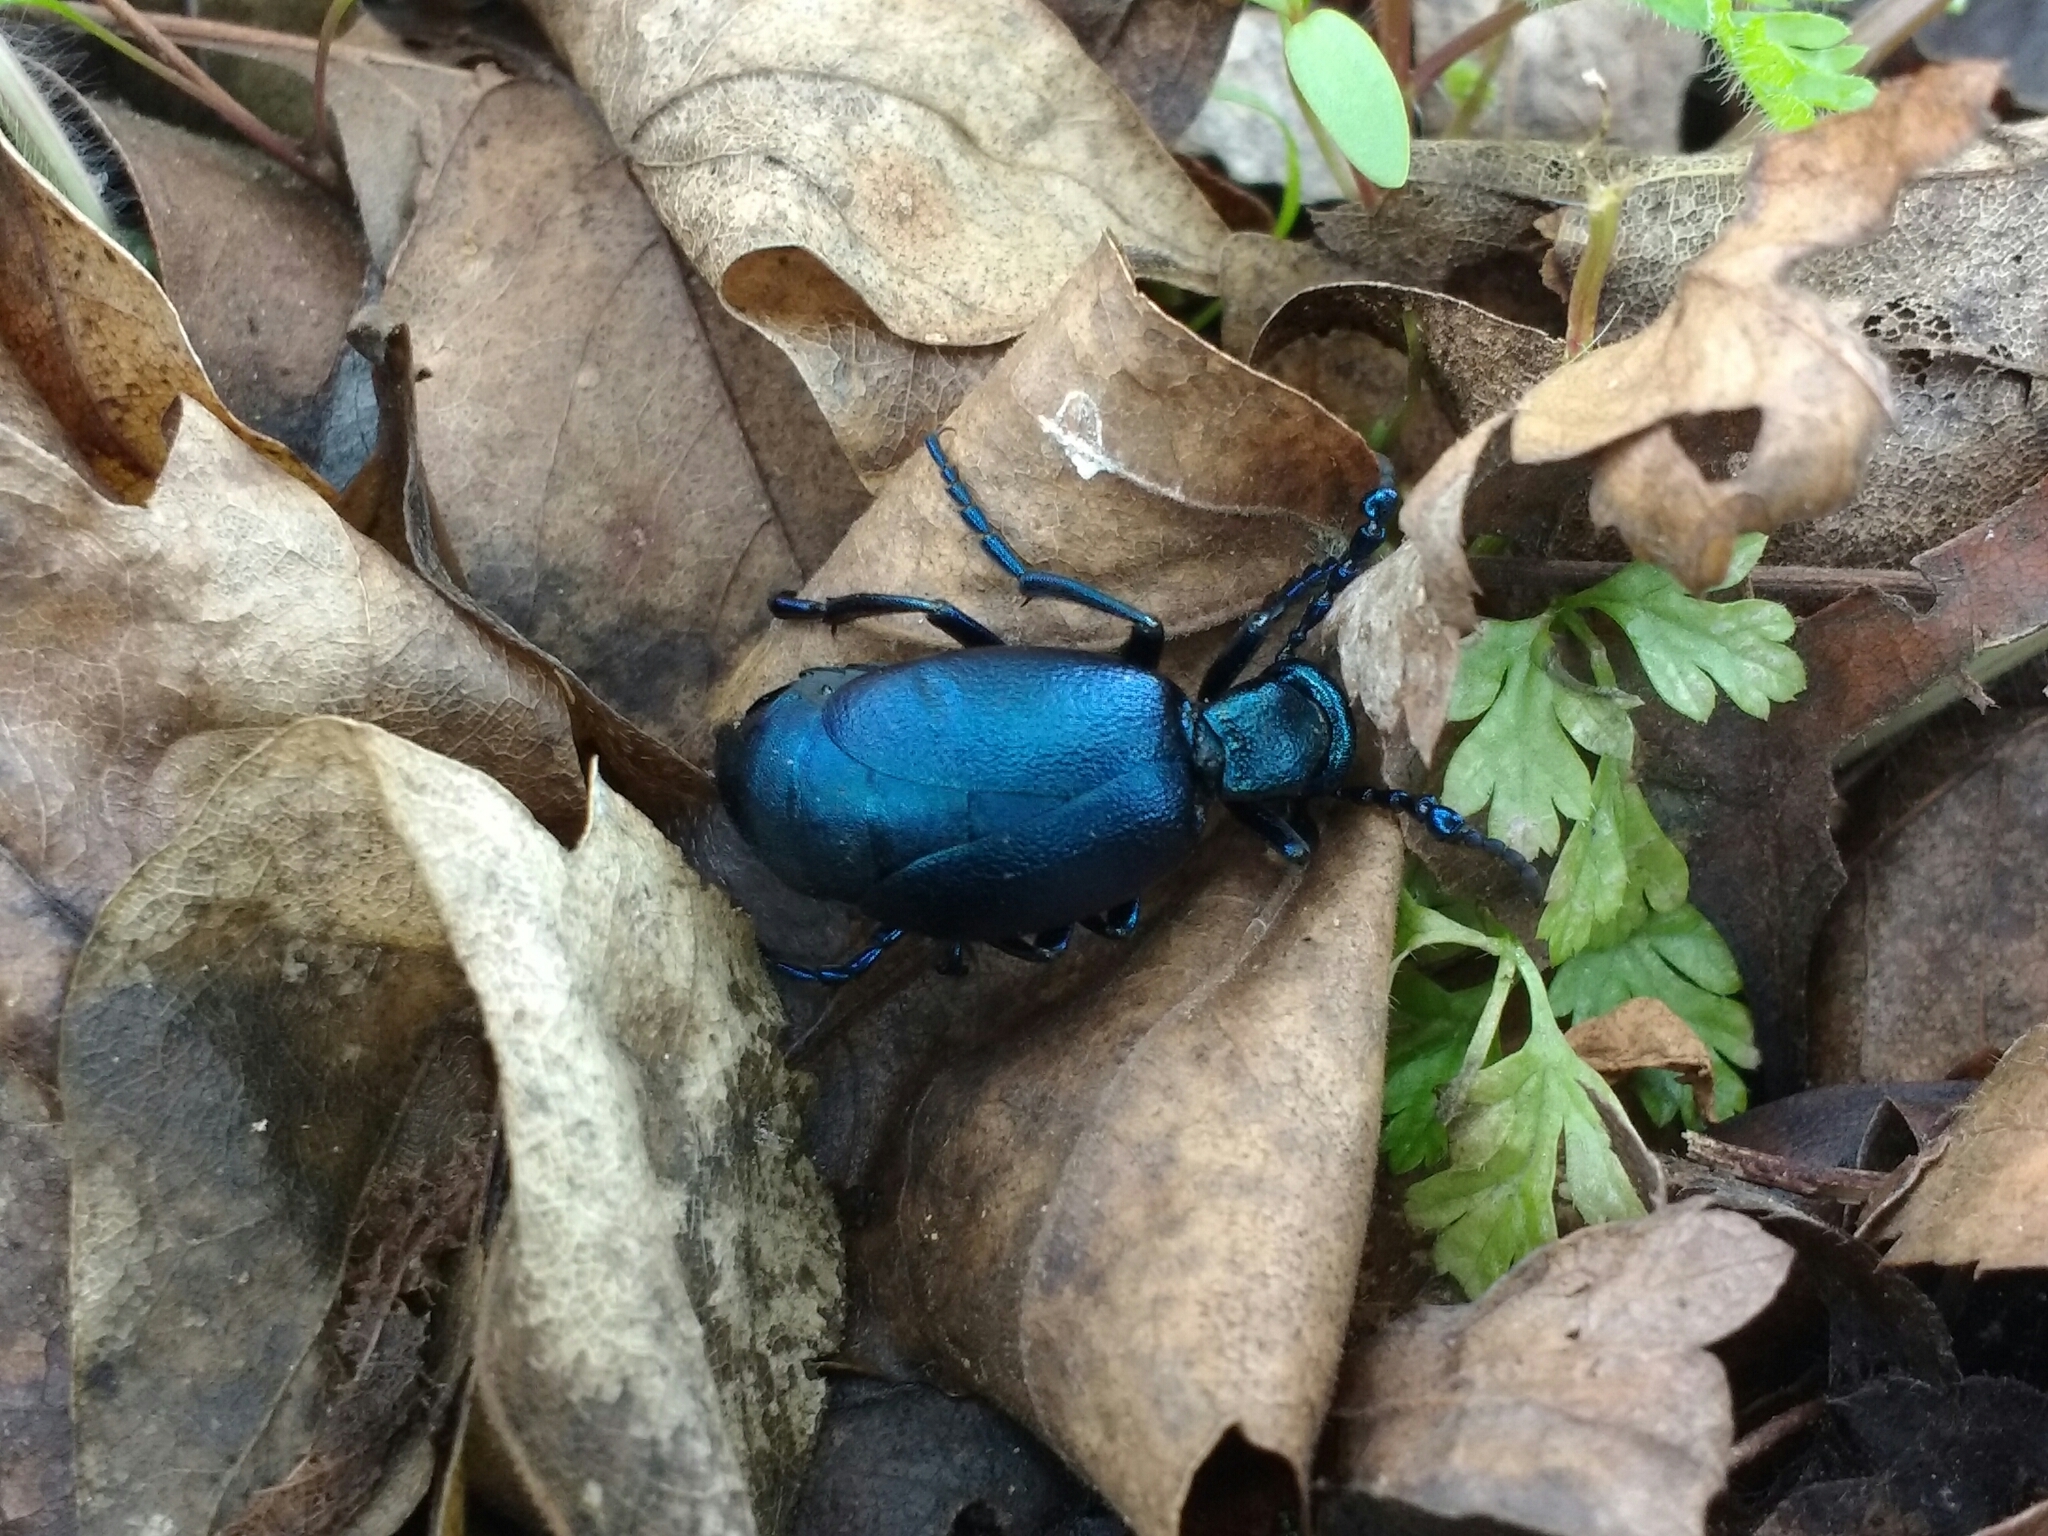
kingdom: Animalia
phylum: Arthropoda
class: Insecta
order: Coleoptera
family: Meloidae
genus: Meloe
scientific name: Meloe violaceus
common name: Violet oil-beetle
